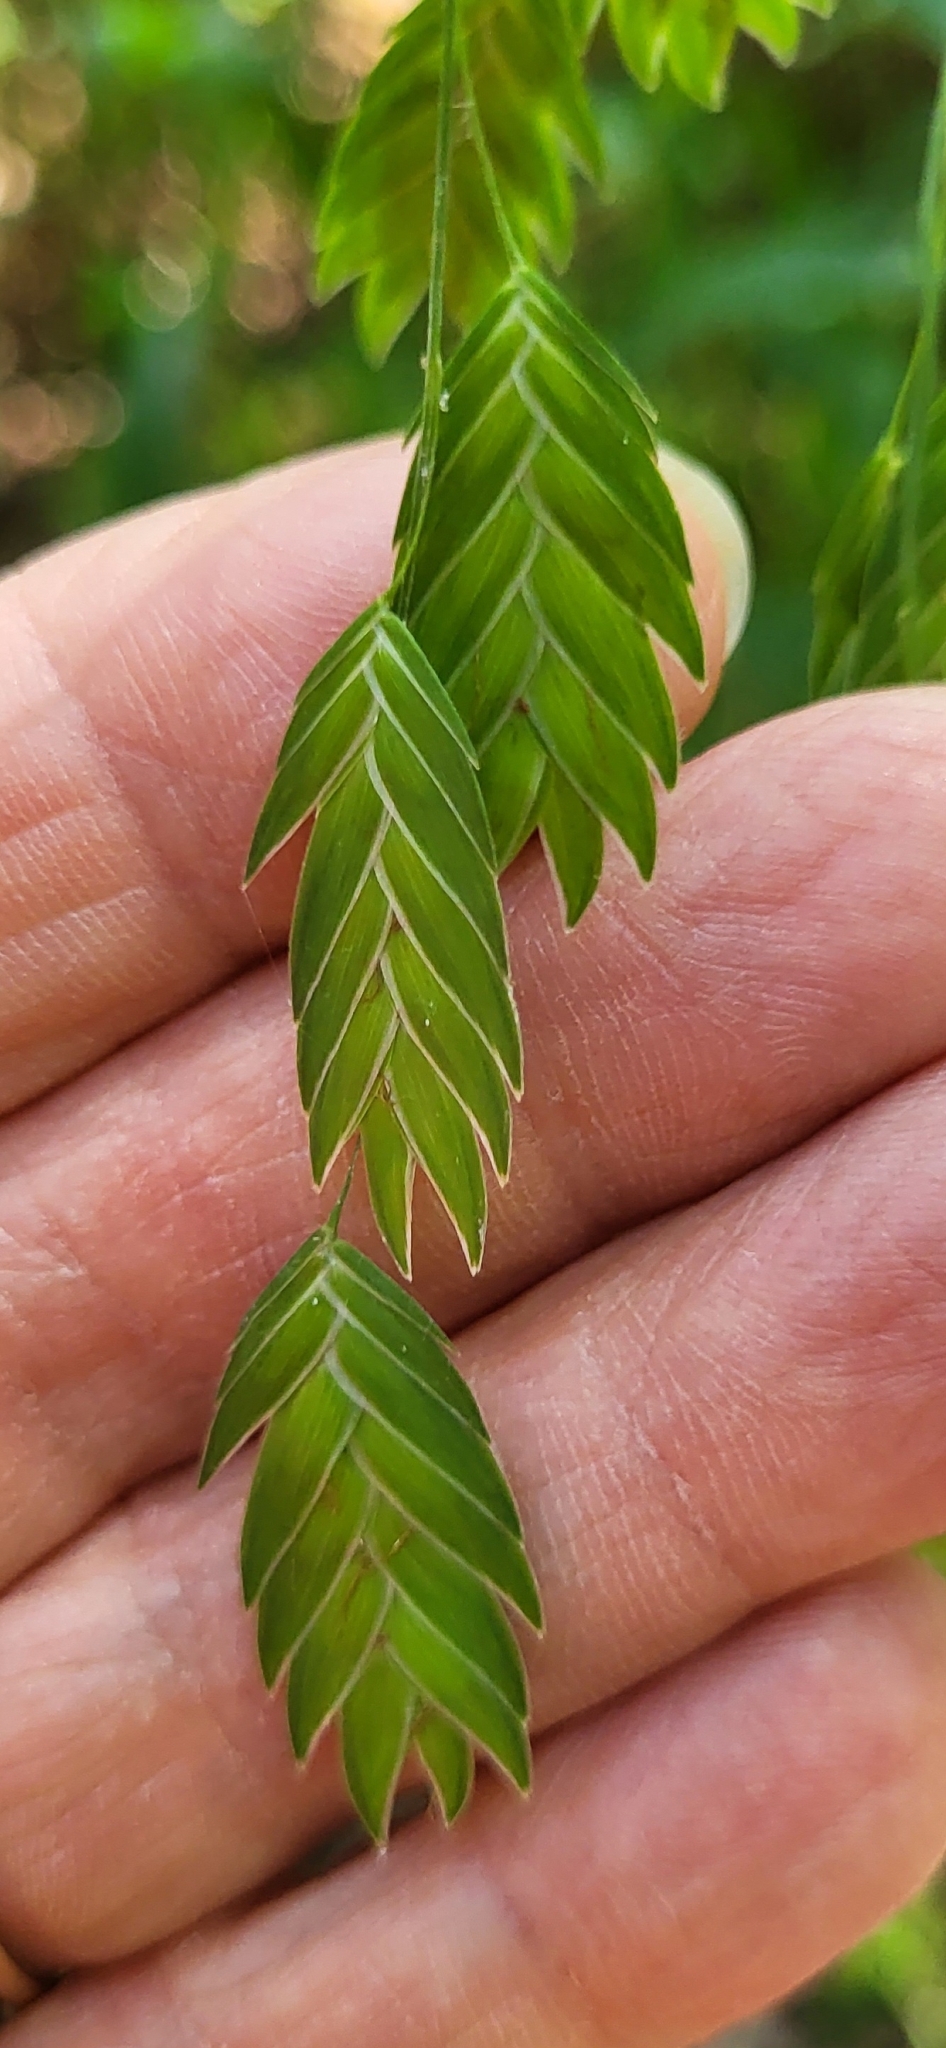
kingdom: Plantae
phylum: Tracheophyta
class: Liliopsida
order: Poales
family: Poaceae
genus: Chasmanthium
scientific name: Chasmanthium latifolium
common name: Broad-leaved chasmanthium
